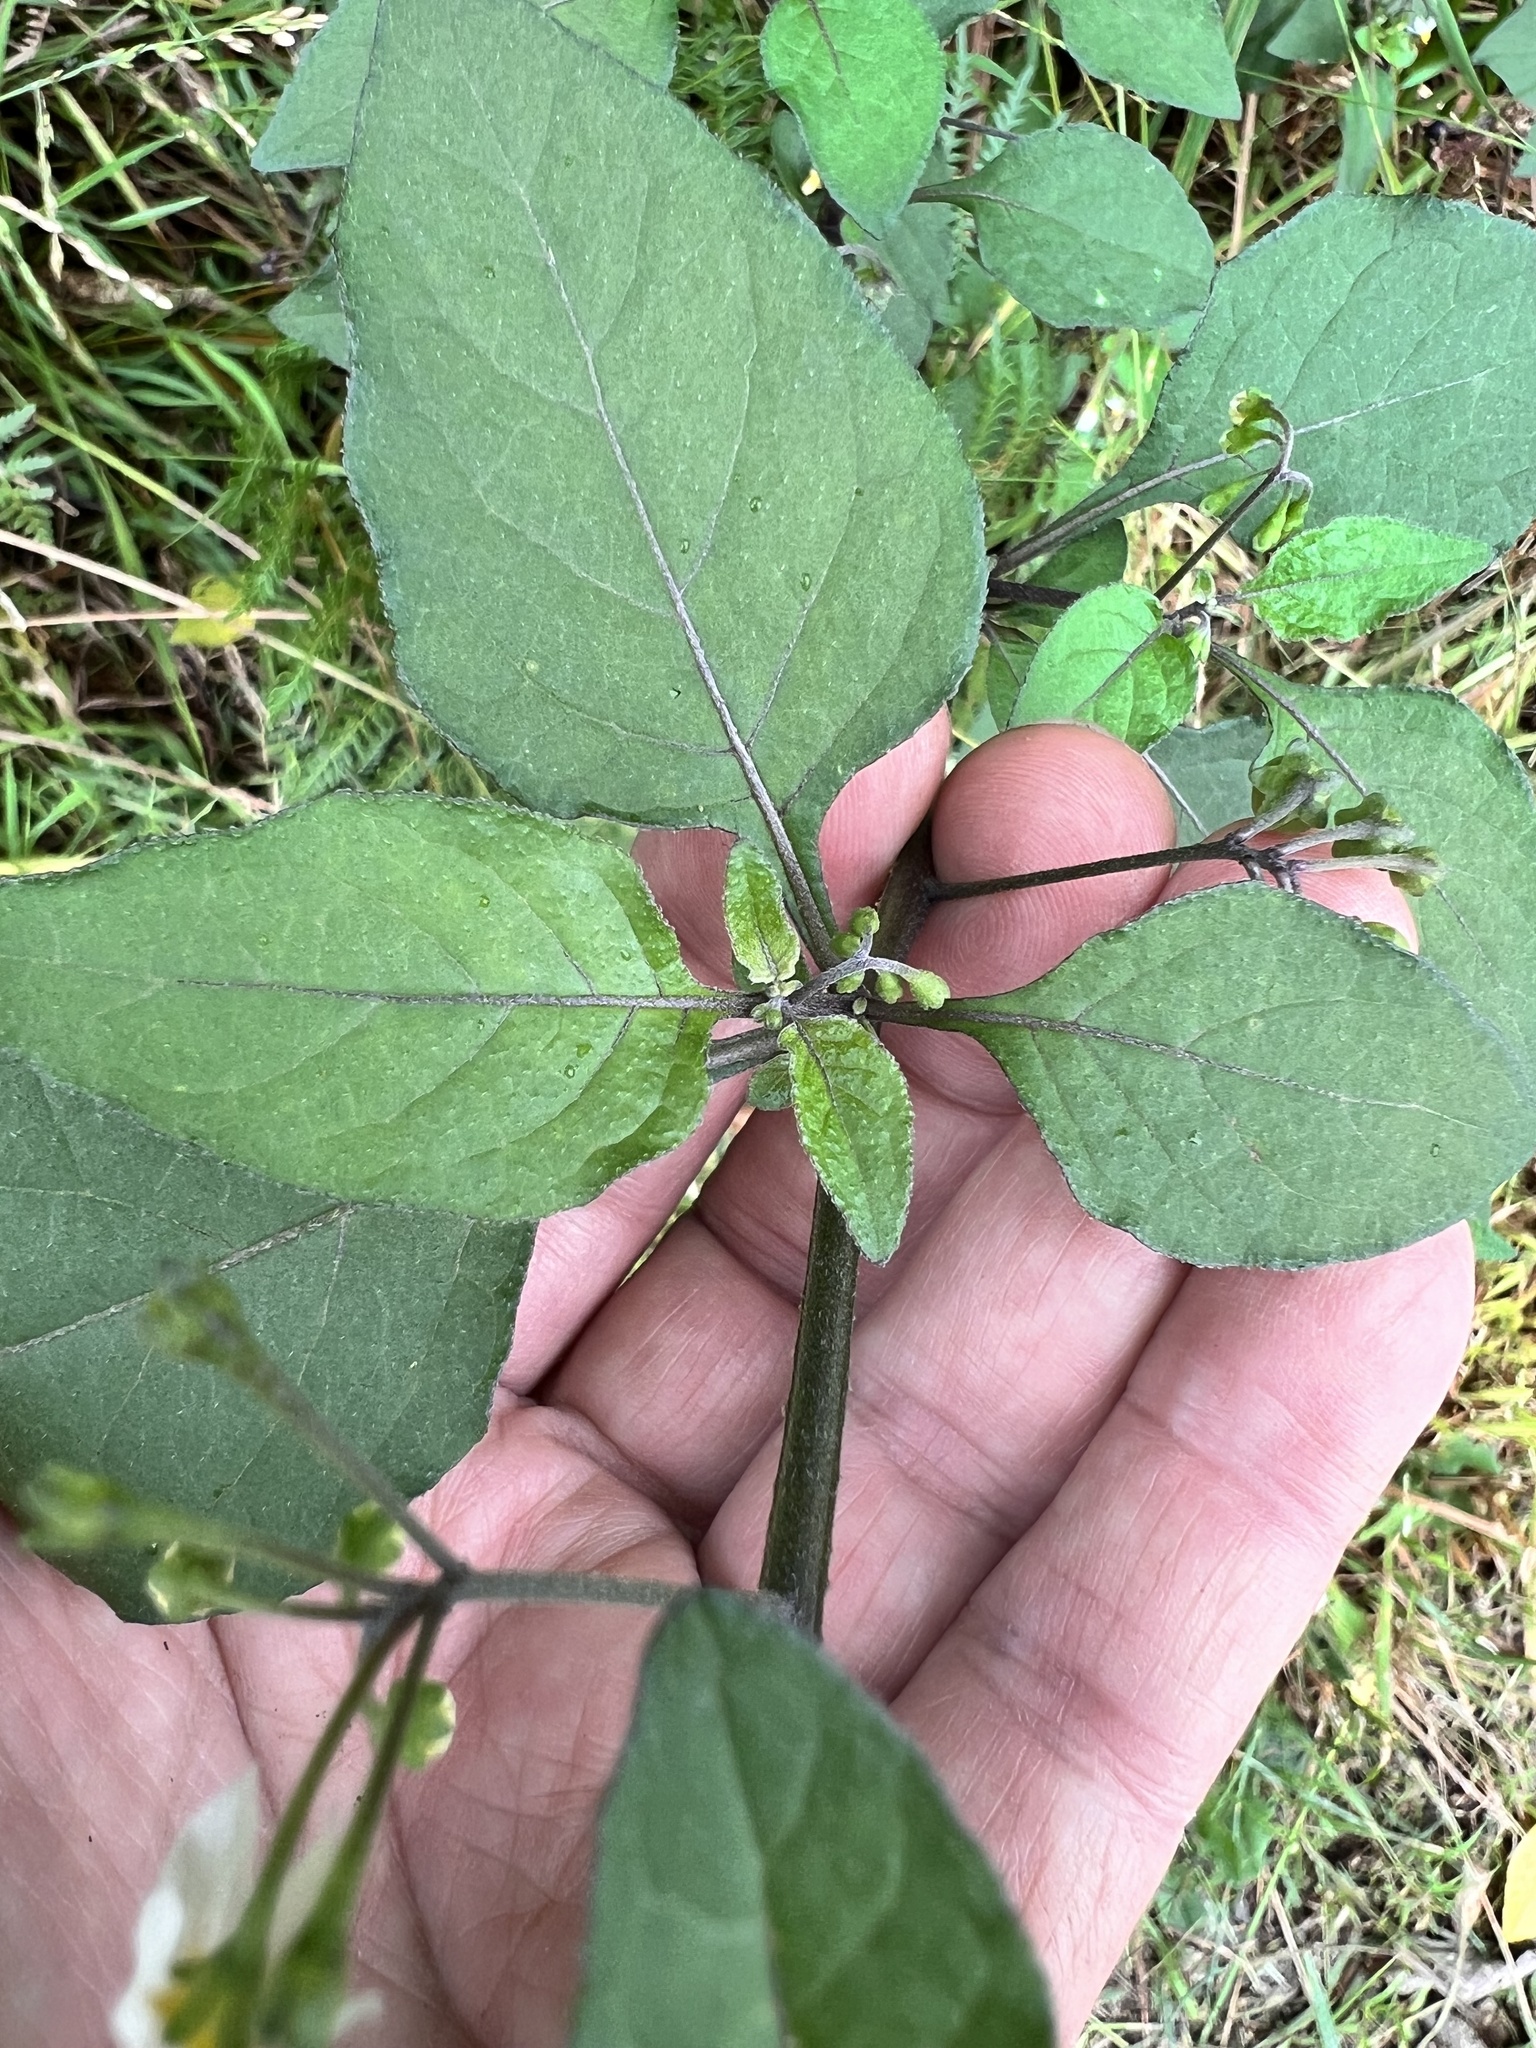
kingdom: Plantae
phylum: Tracheophyta
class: Magnoliopsida
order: Solanales
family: Solanaceae
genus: Solanum
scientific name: Solanum nigrum
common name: Black nightshade
